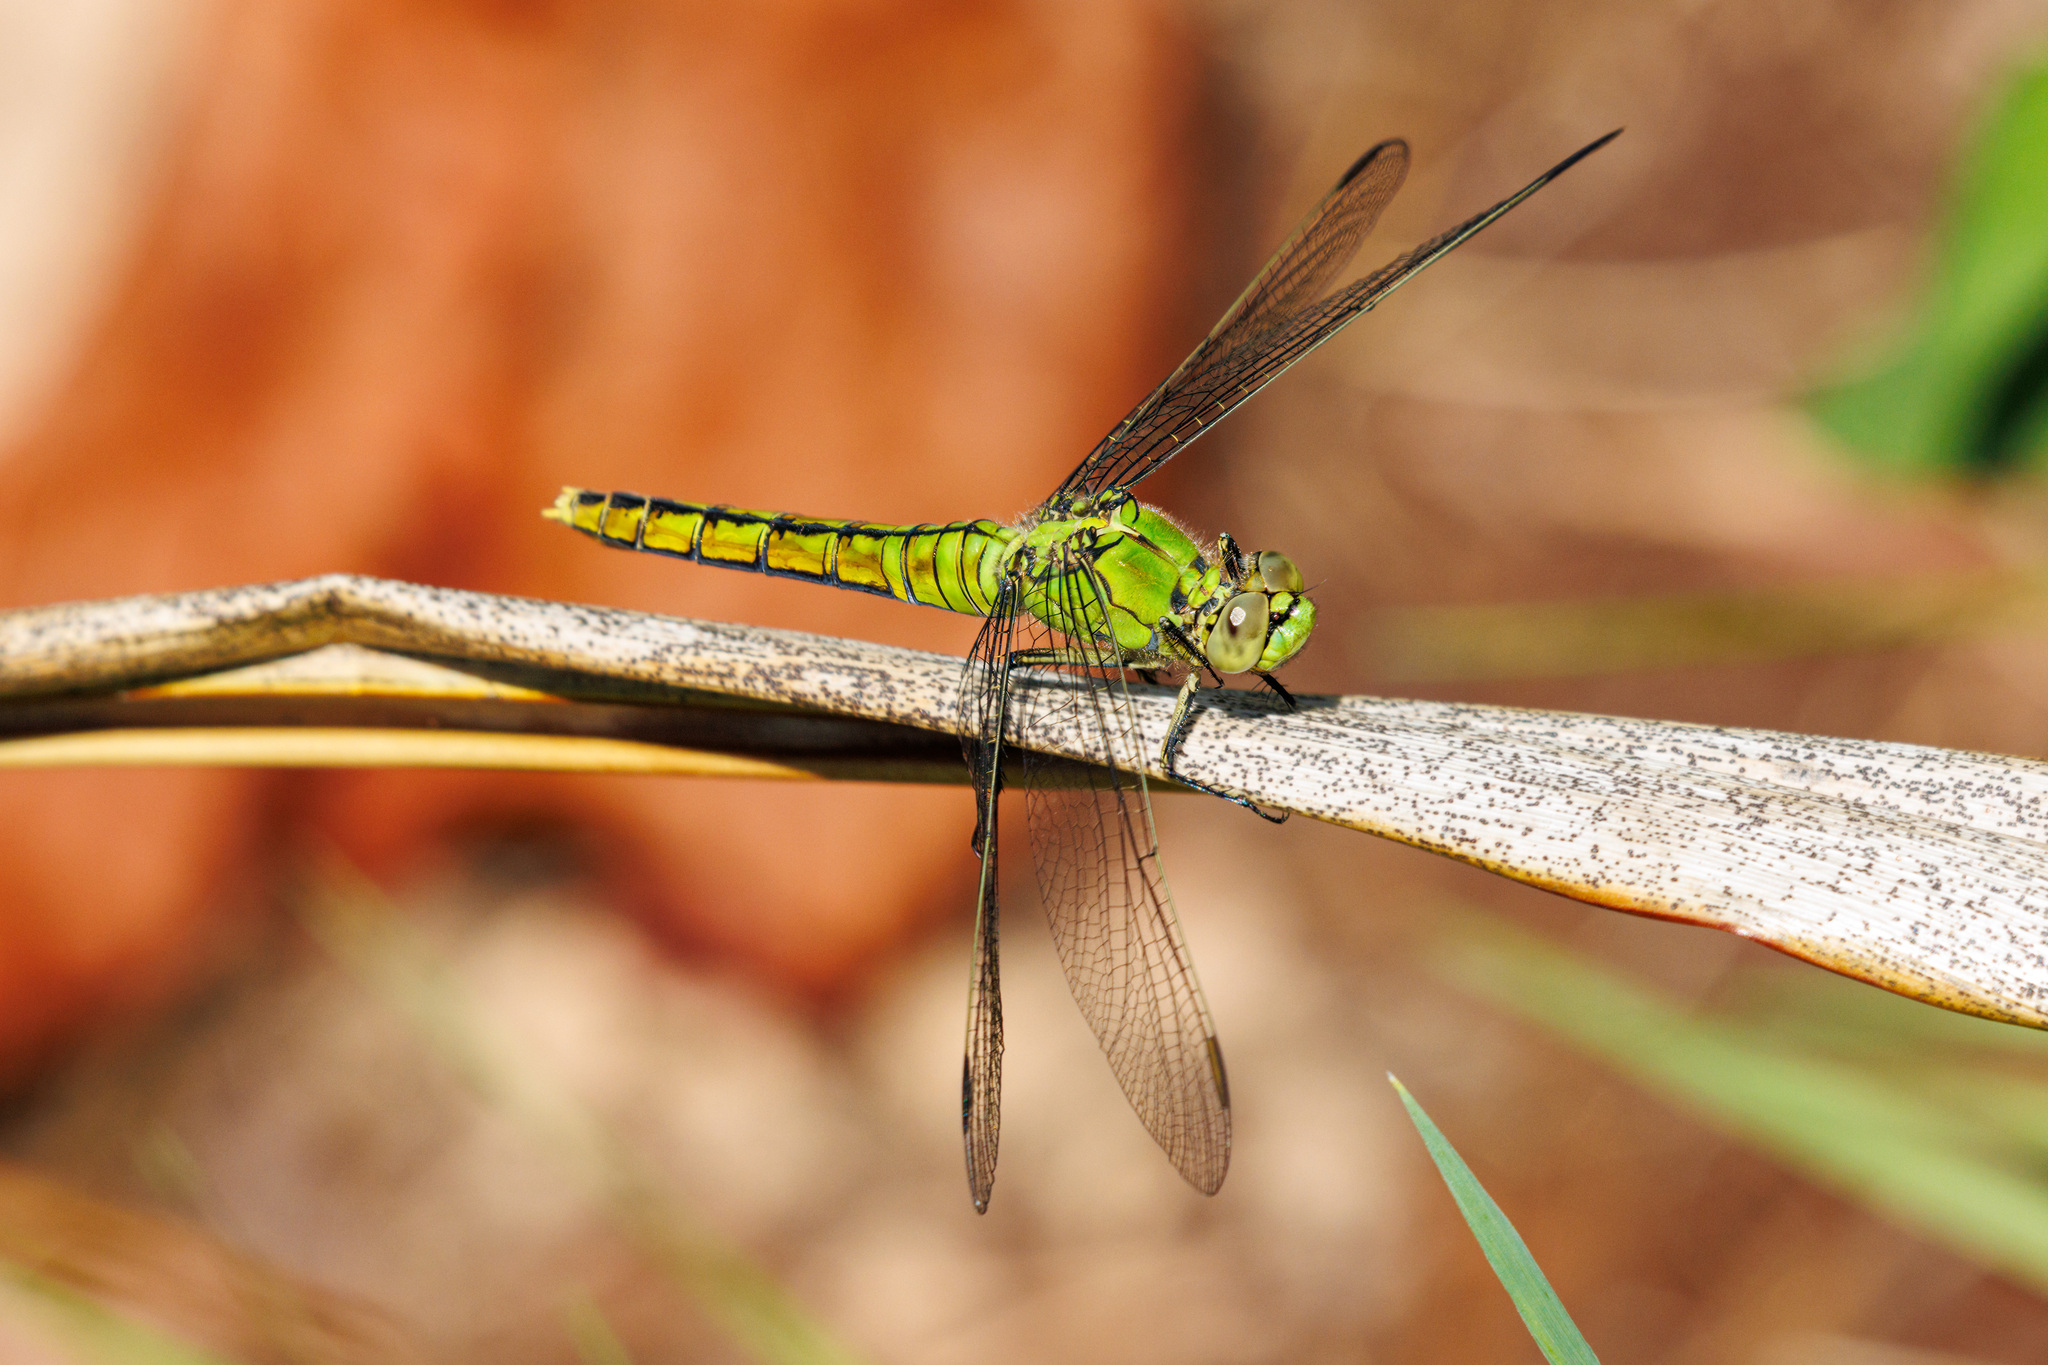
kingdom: Animalia
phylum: Arthropoda
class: Insecta
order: Odonata
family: Libellulidae
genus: Erythemis
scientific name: Erythemis collocata
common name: Western pondhawk
